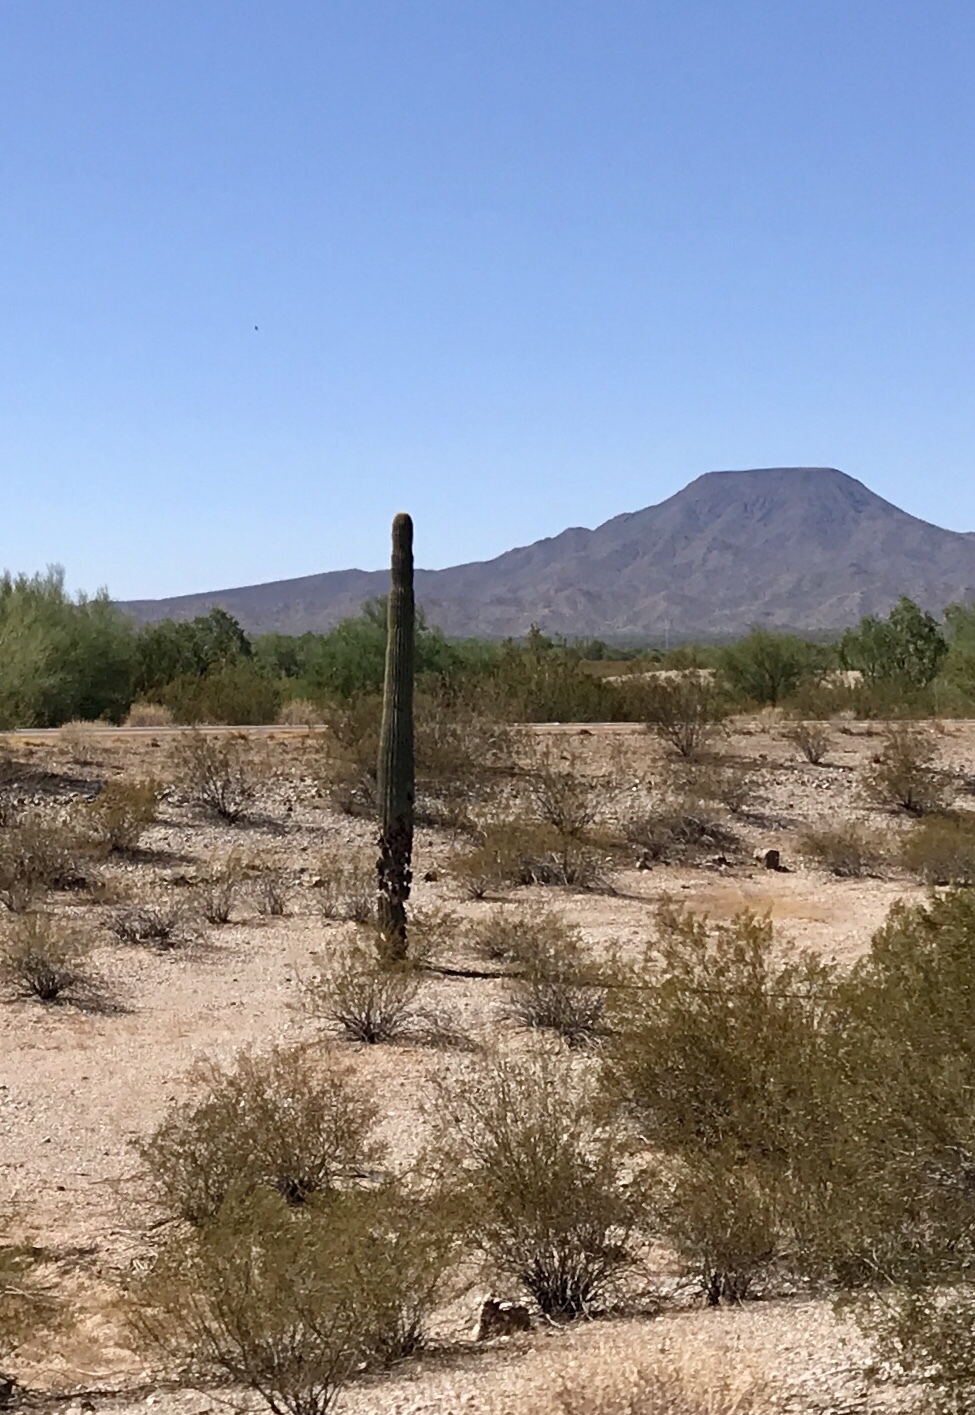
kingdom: Plantae
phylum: Tracheophyta
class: Magnoliopsida
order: Caryophyllales
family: Cactaceae
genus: Carnegiea
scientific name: Carnegiea gigantea
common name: Saguaro
